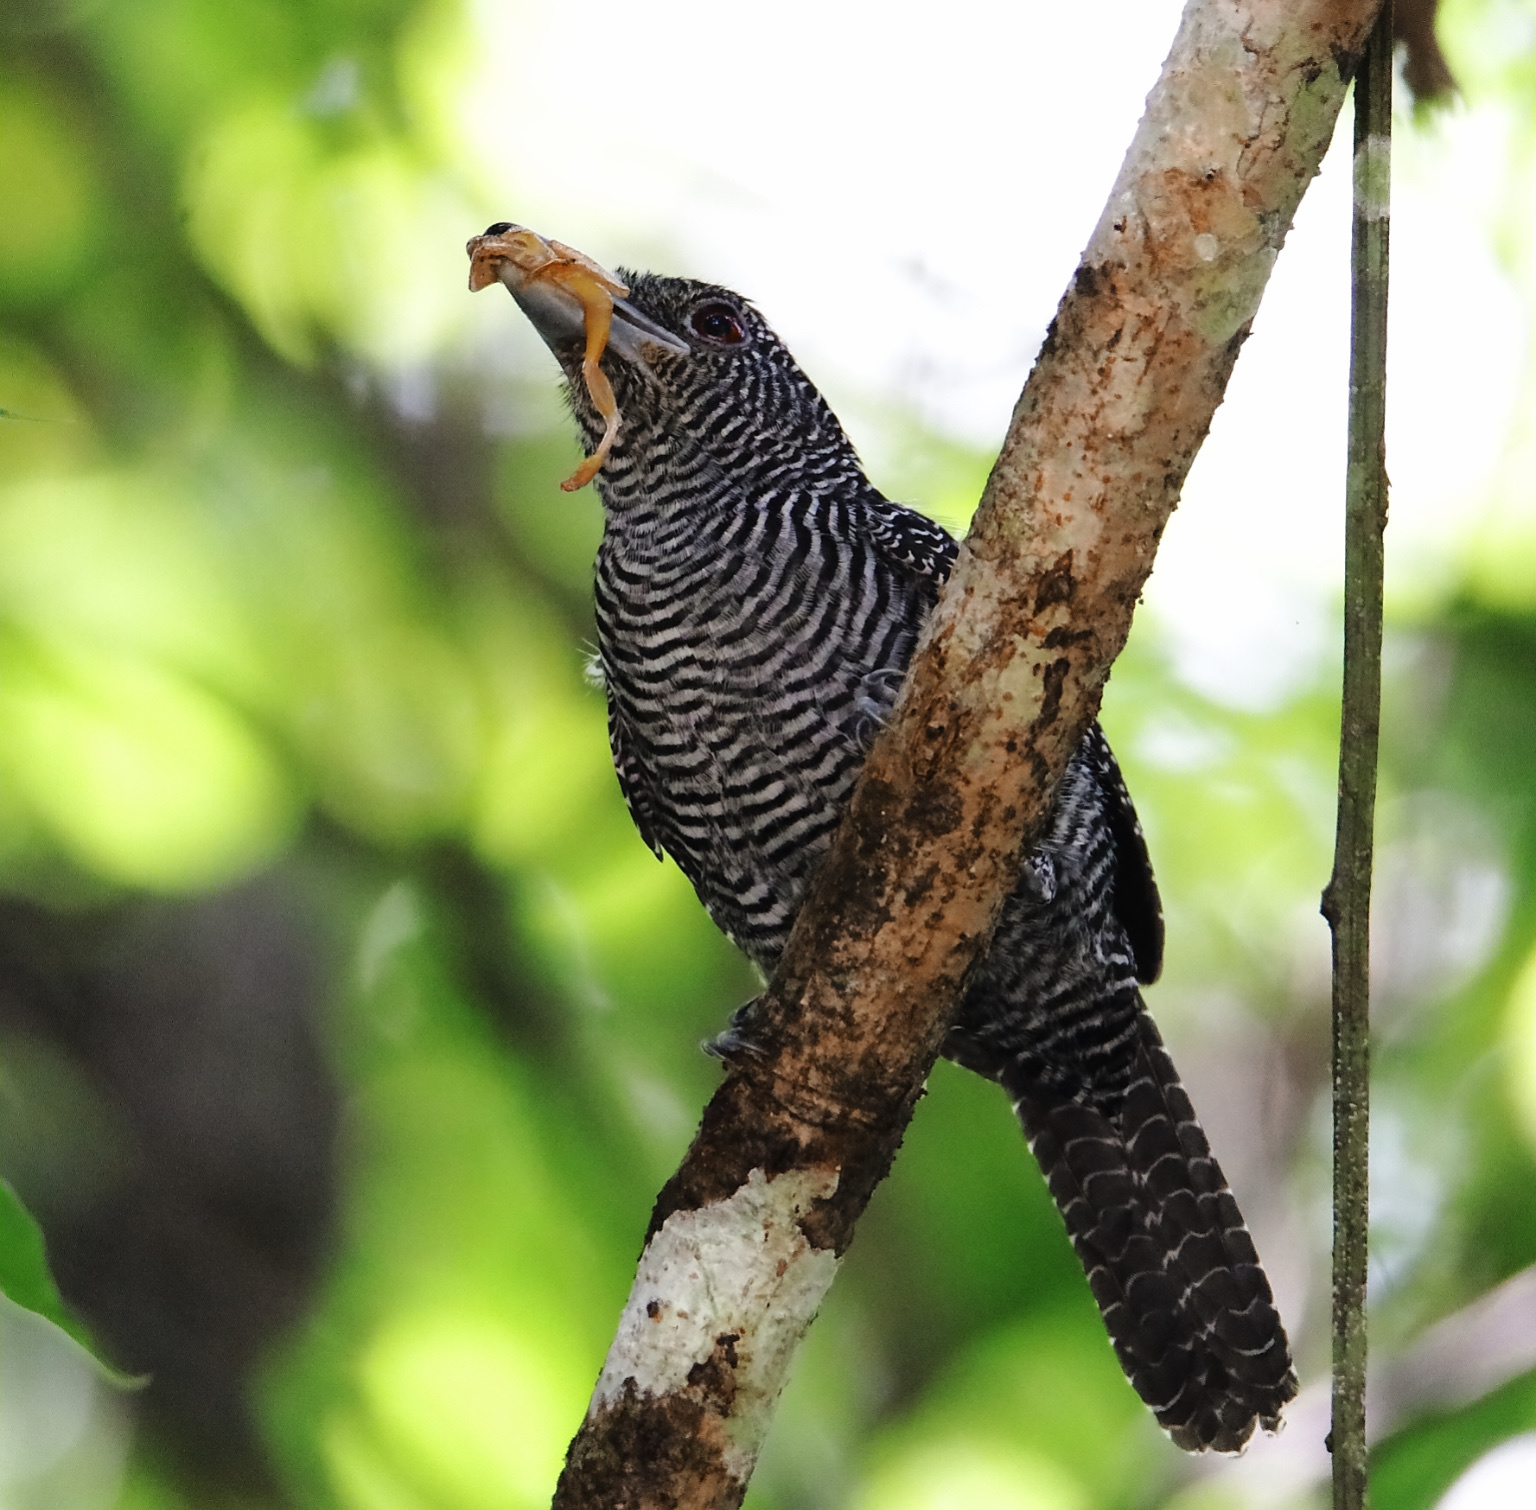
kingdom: Animalia
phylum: Chordata
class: Aves
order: Passeriformes
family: Thamnophilidae
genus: Cymbilaimus
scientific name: Cymbilaimus lineatus
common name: Fasciated antshrike
